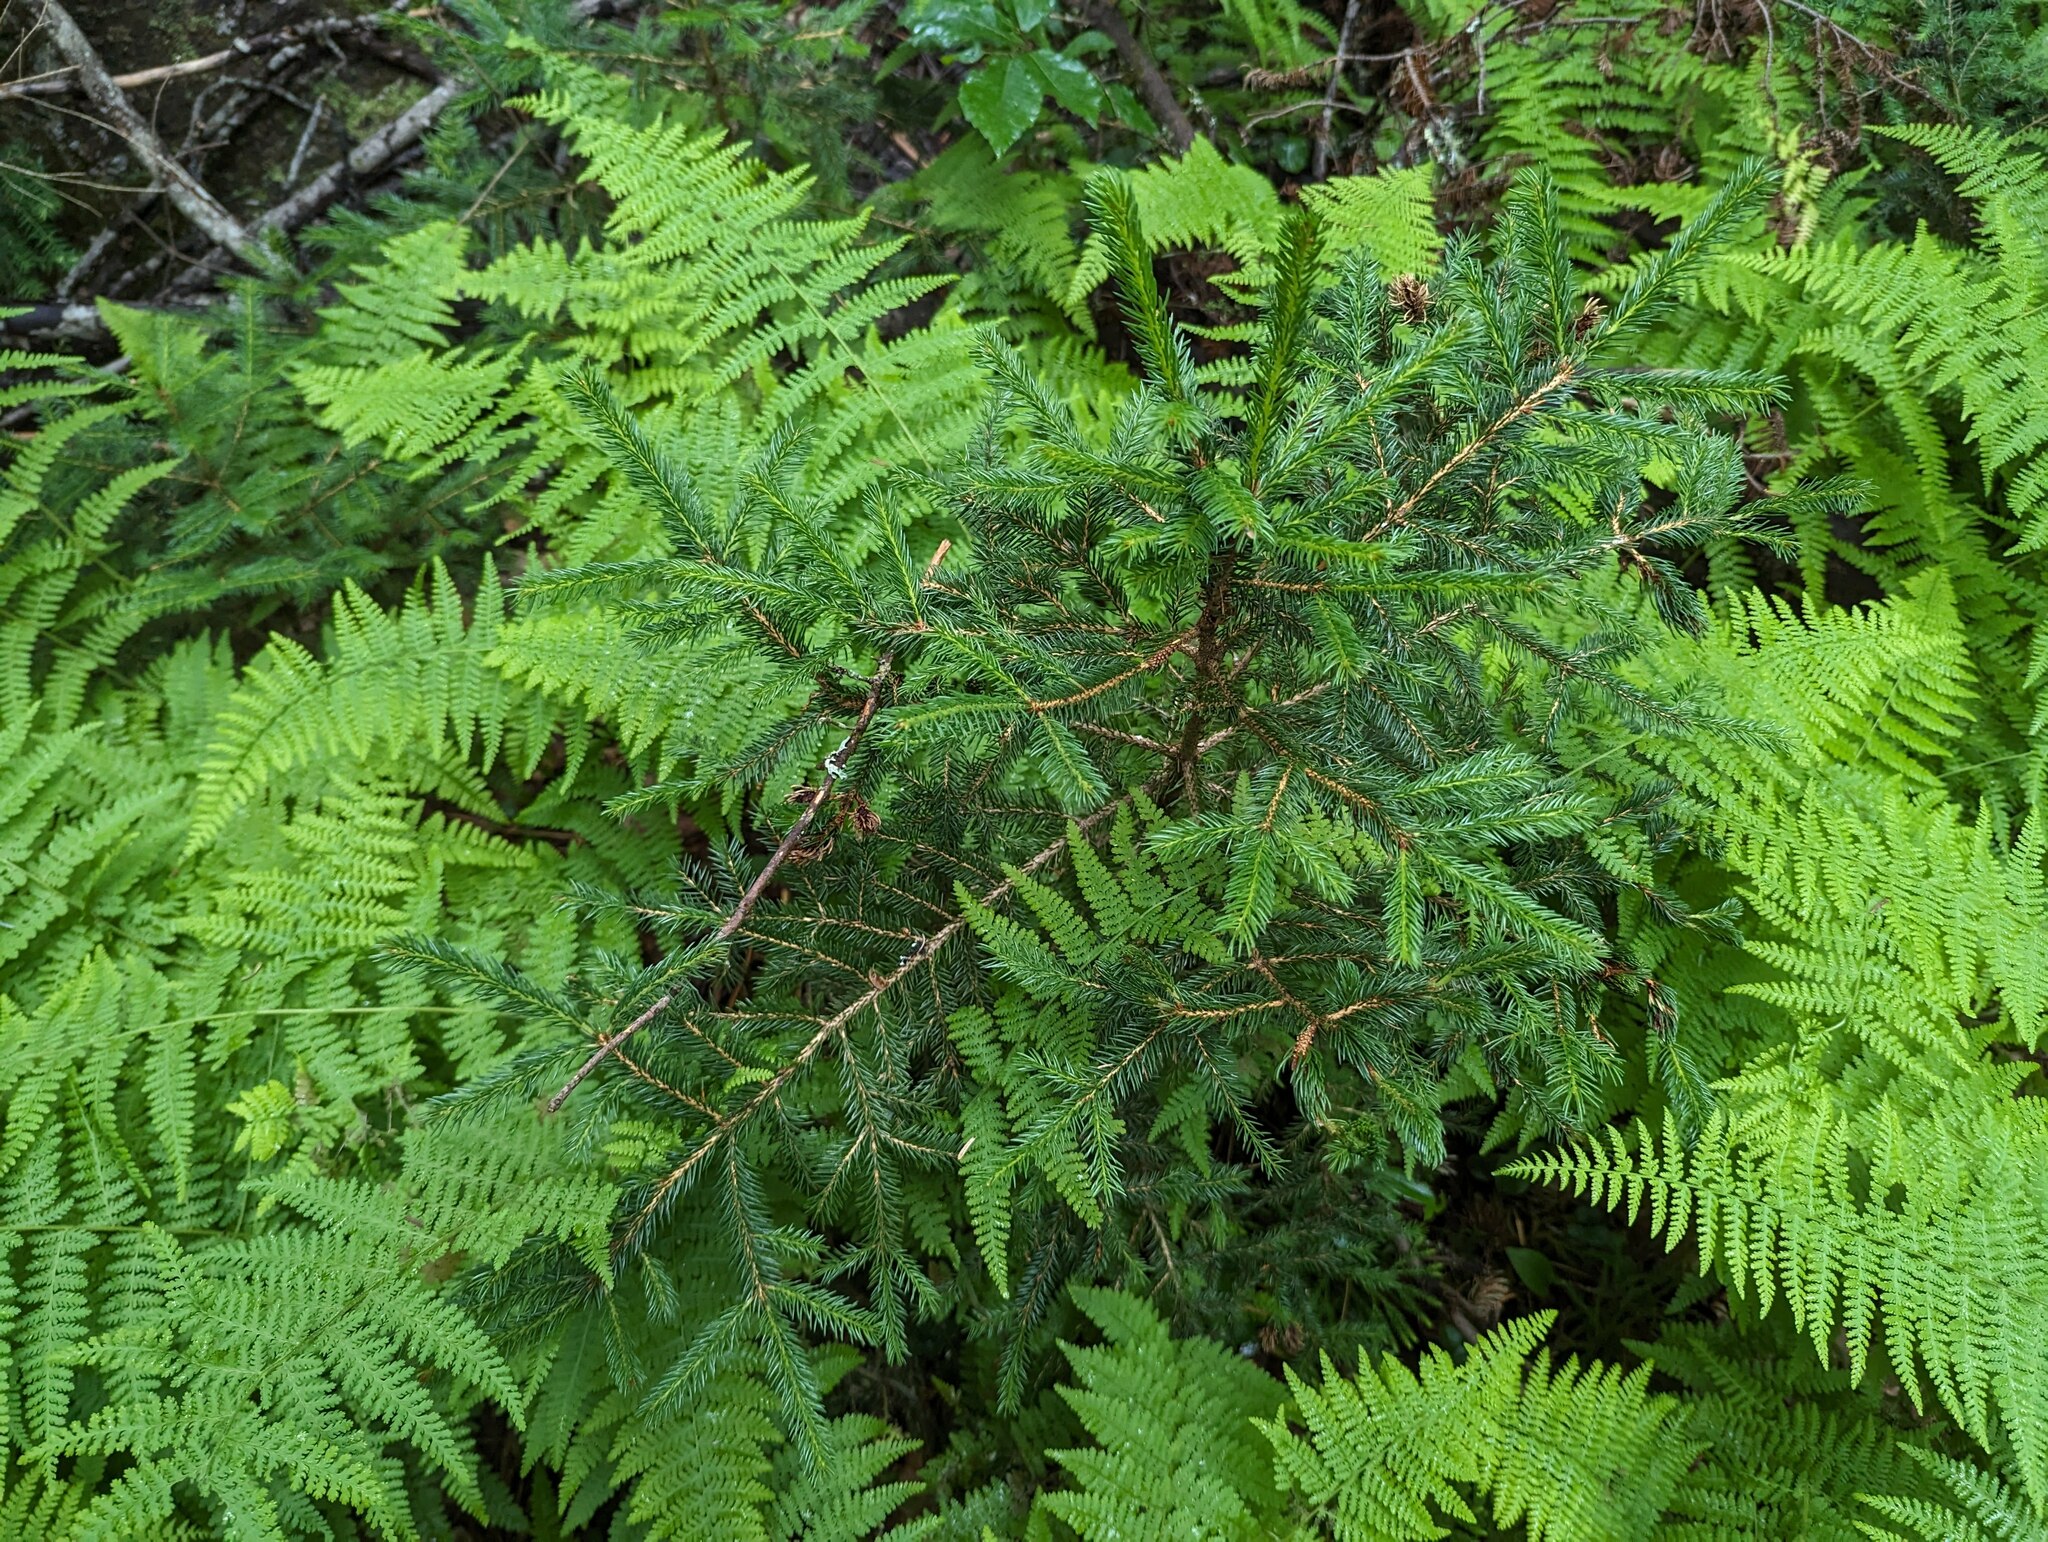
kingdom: Plantae
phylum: Tracheophyta
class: Pinopsida
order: Pinales
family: Pinaceae
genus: Picea
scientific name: Picea rubens
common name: Red spruce
